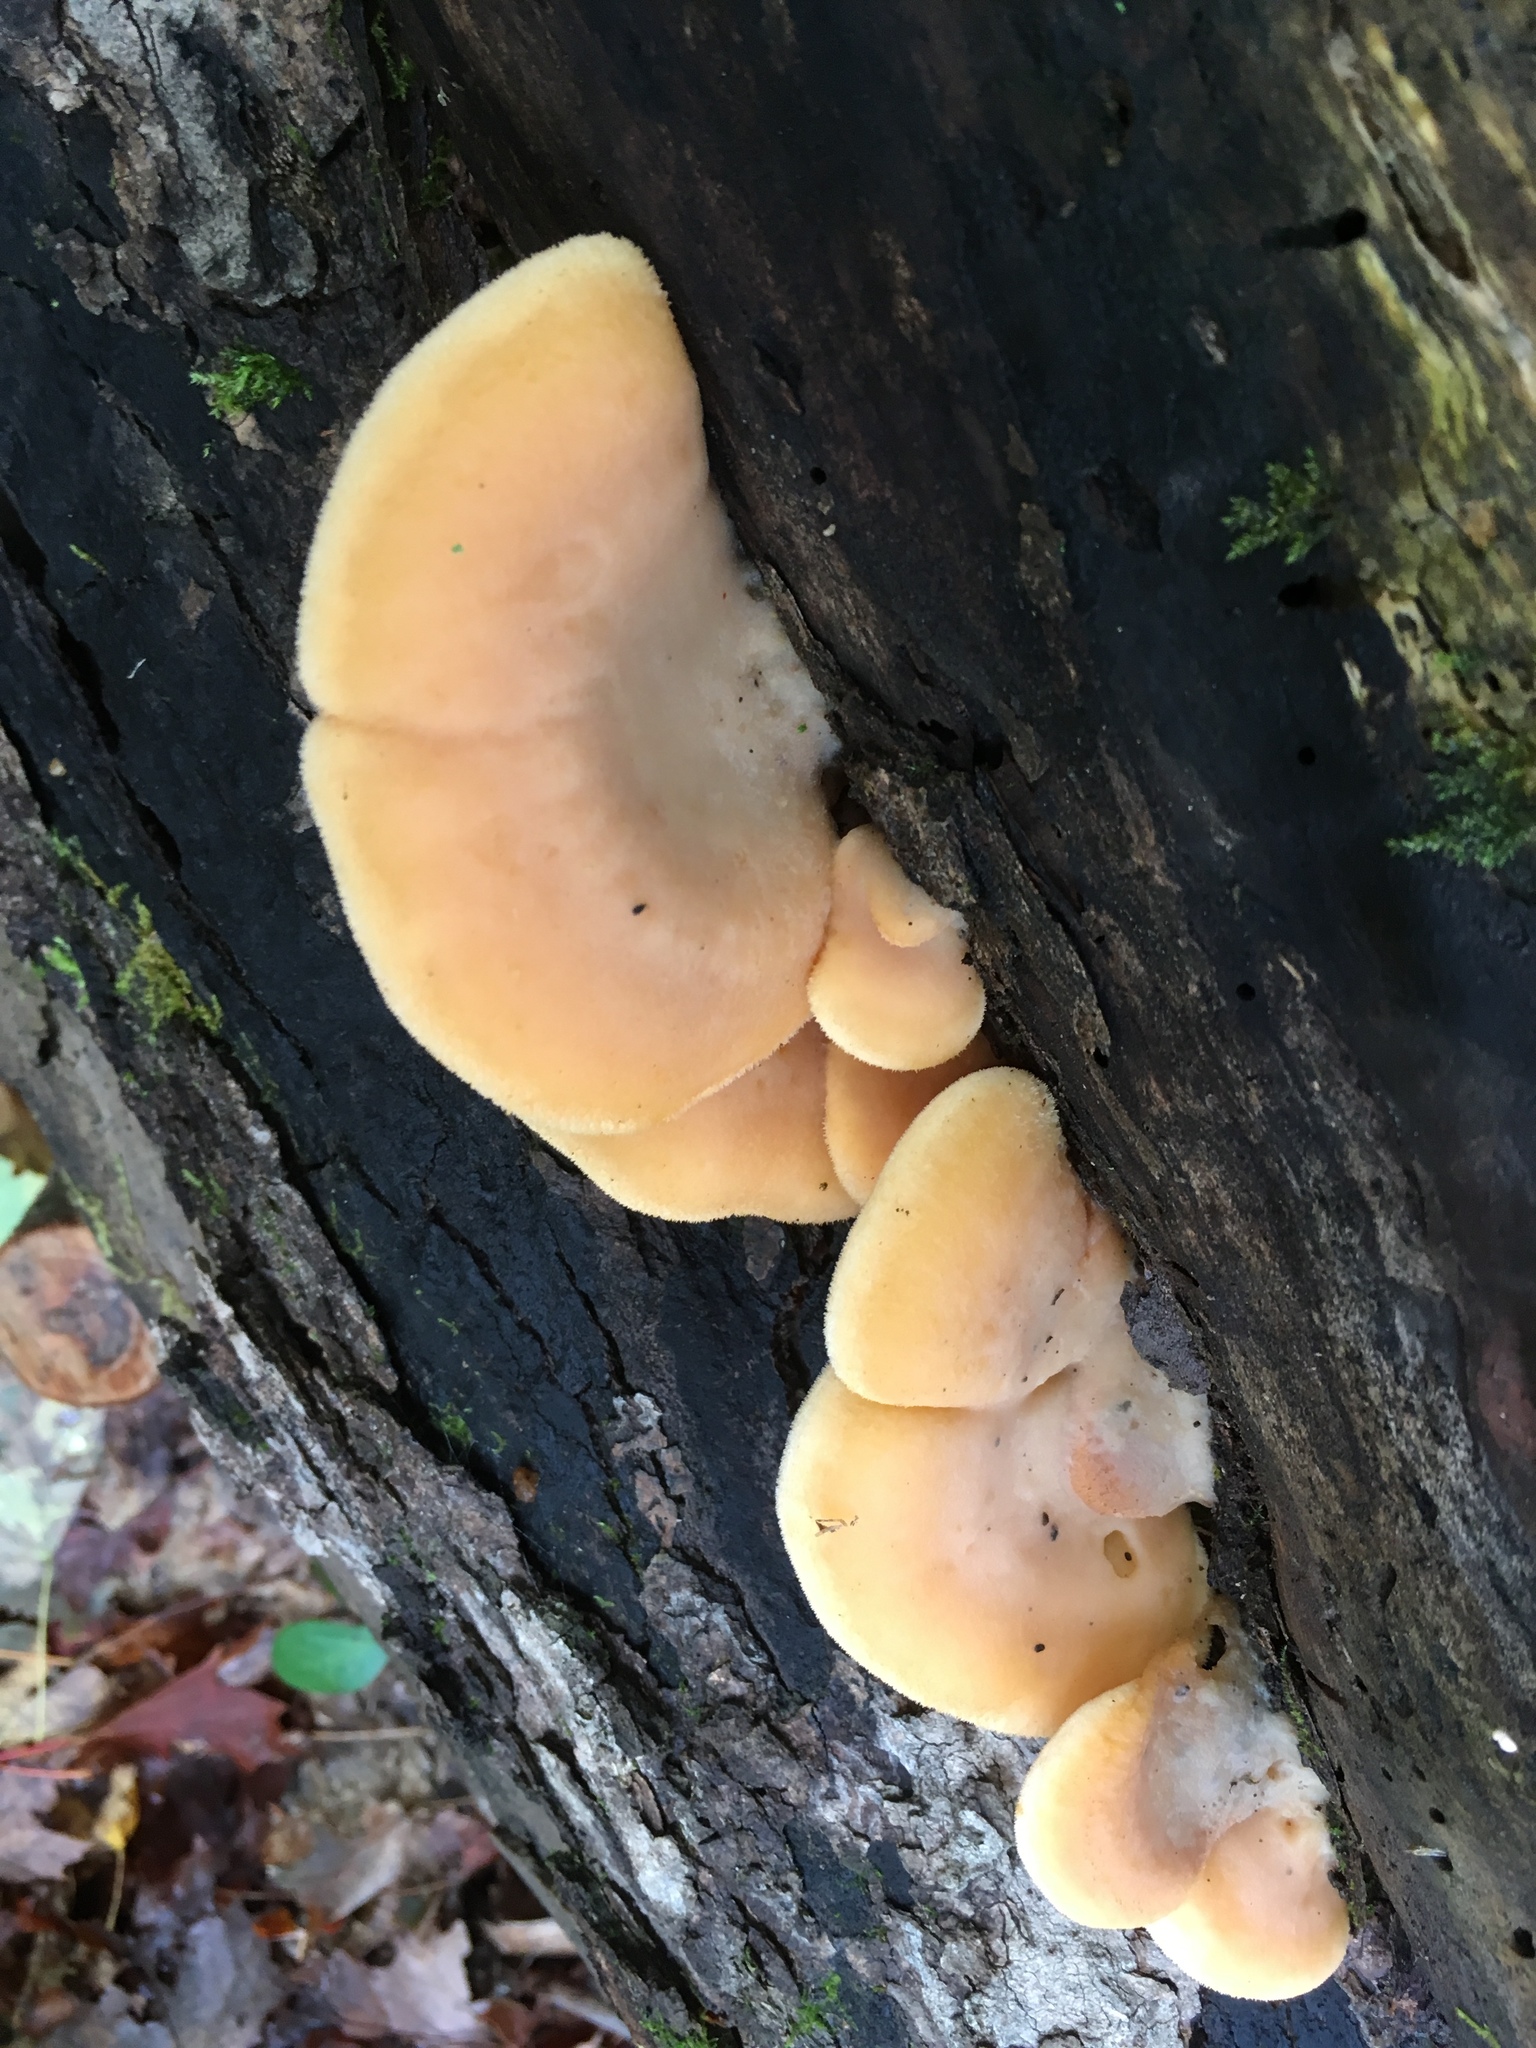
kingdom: Fungi
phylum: Basidiomycota
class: Agaricomycetes
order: Agaricales
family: Phyllotopsidaceae
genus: Phyllotopsis
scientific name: Phyllotopsis nidulans
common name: Orange mock oyster
